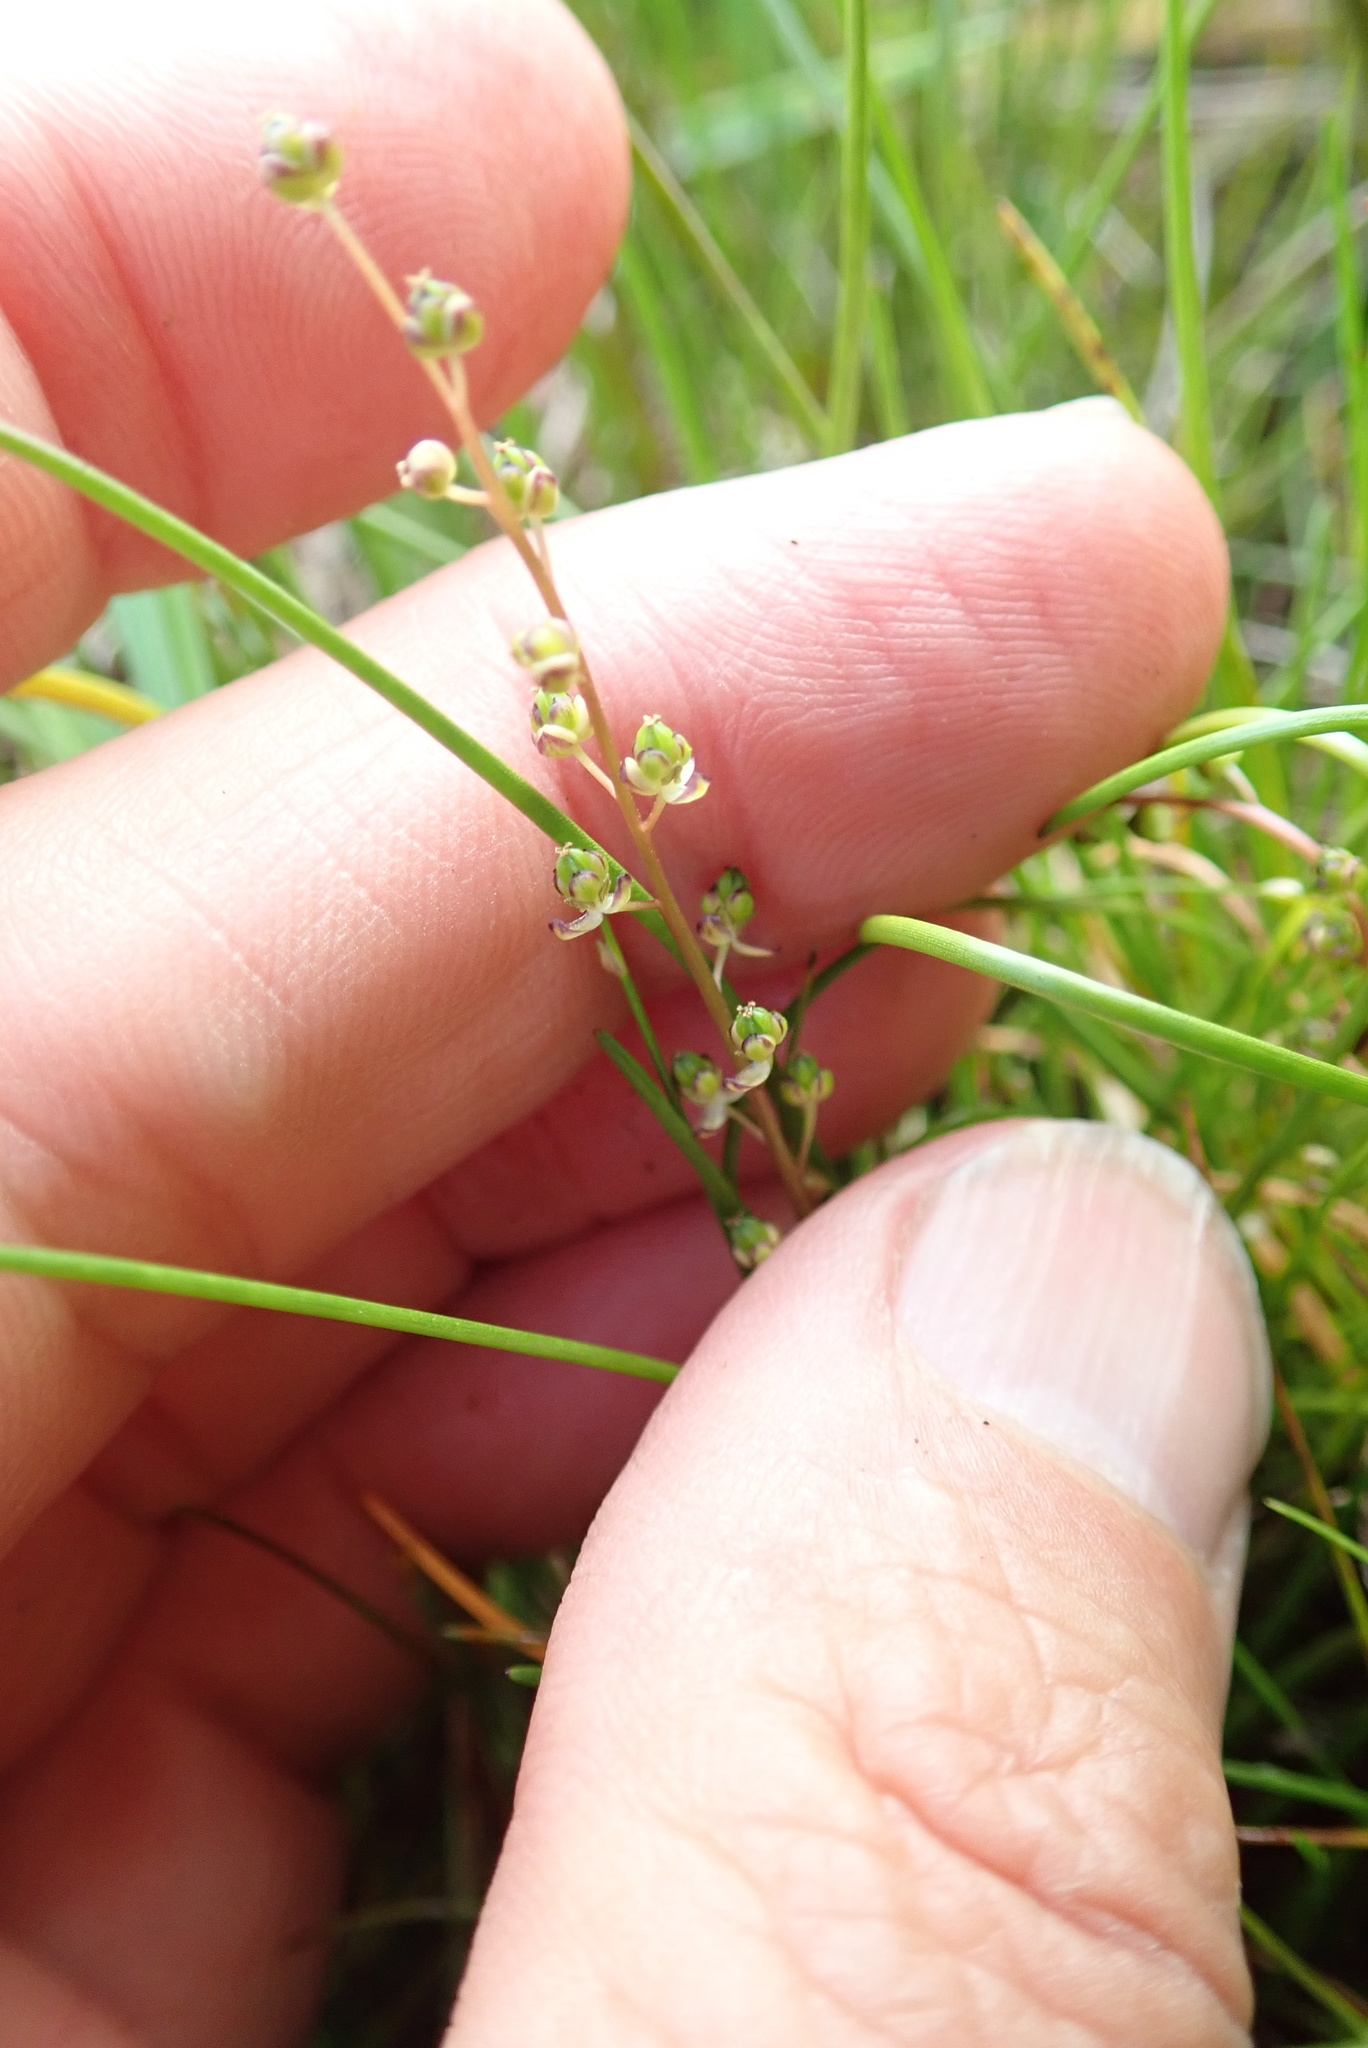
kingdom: Plantae
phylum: Tracheophyta
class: Liliopsida
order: Alismatales
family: Juncaginaceae
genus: Triglochin
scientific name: Triglochin striata
